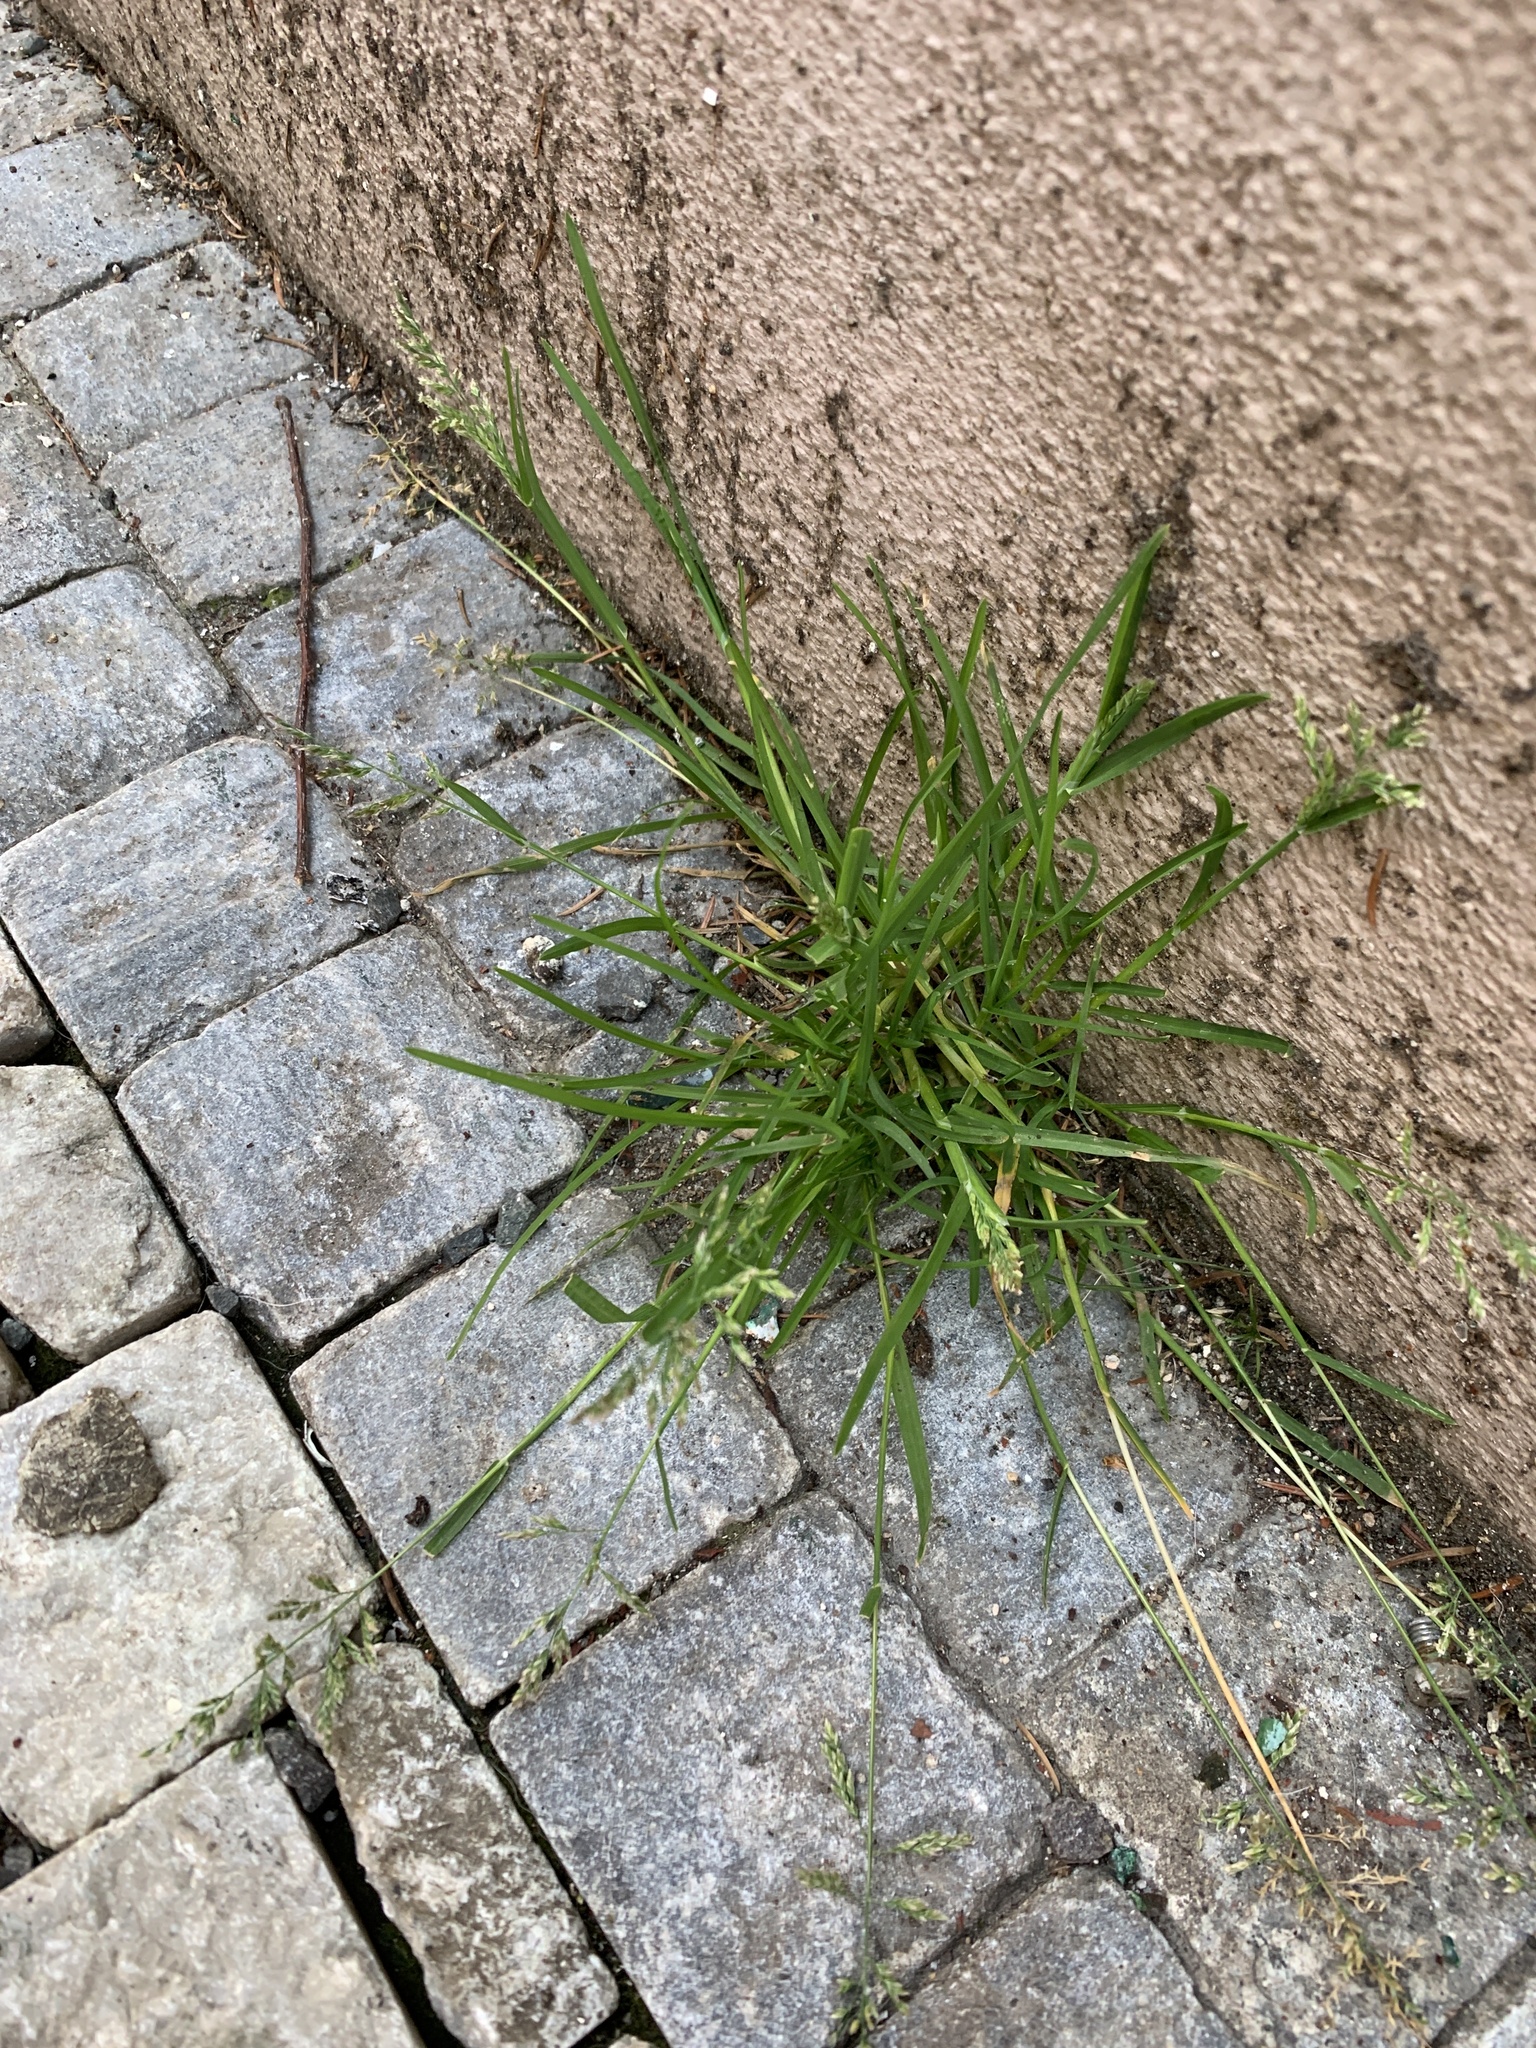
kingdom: Plantae
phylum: Tracheophyta
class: Liliopsida
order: Poales
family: Poaceae
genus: Poa
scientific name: Poa annua
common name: Annual bluegrass
